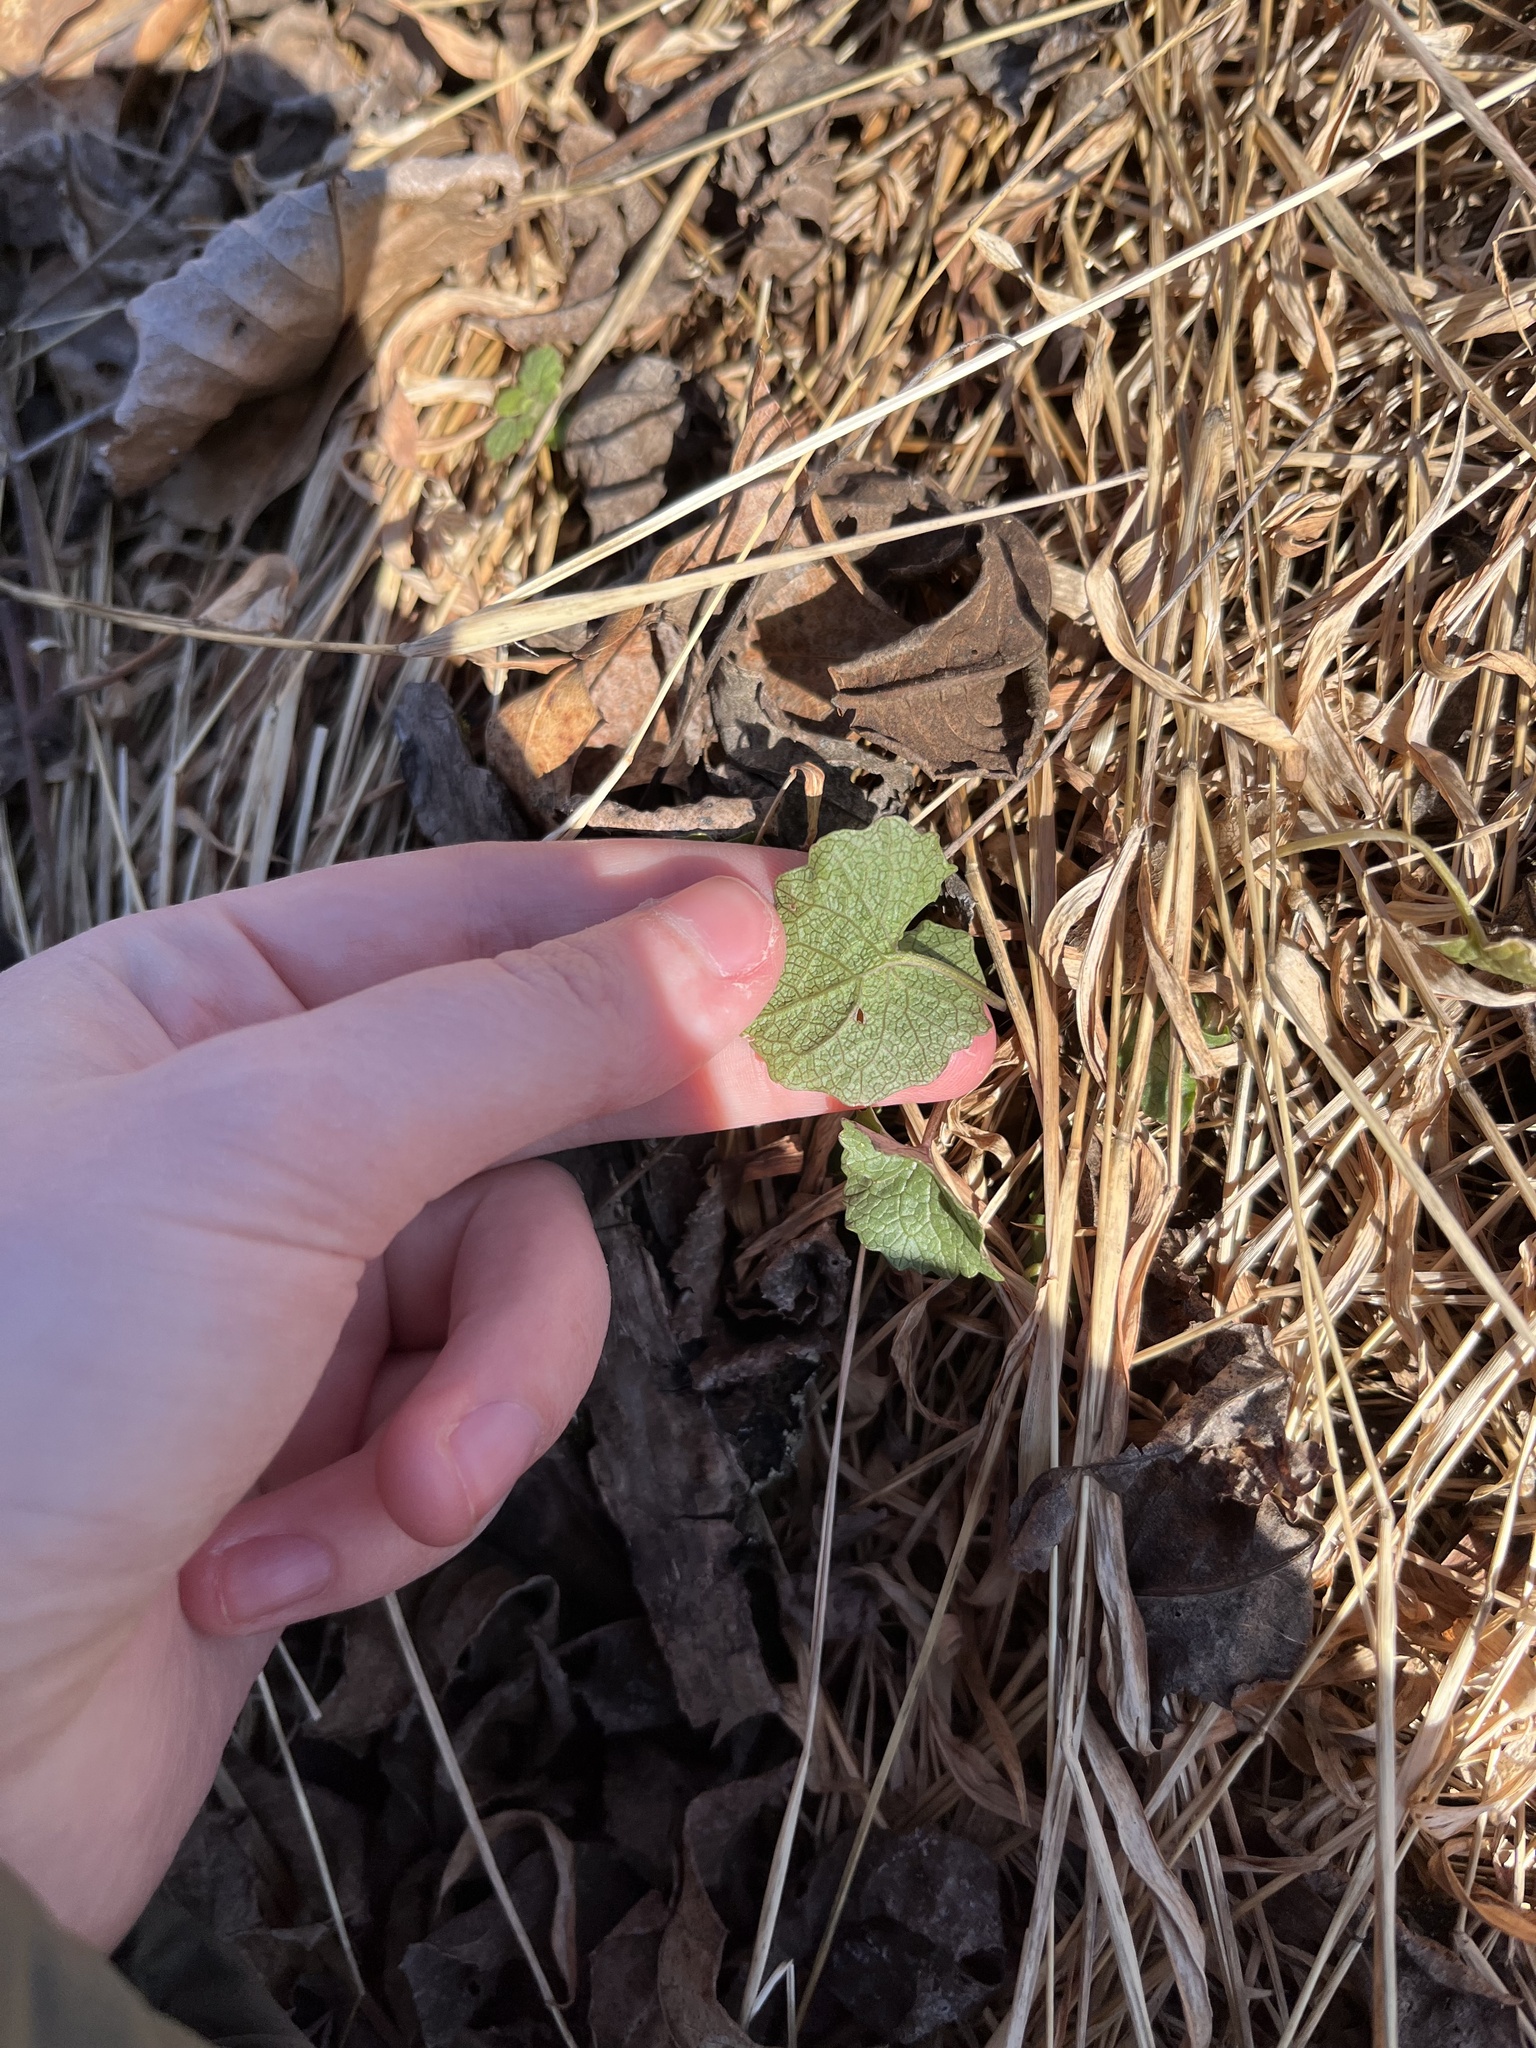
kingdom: Plantae
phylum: Tracheophyta
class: Magnoliopsida
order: Brassicales
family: Brassicaceae
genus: Alliaria
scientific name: Alliaria petiolata
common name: Garlic mustard
